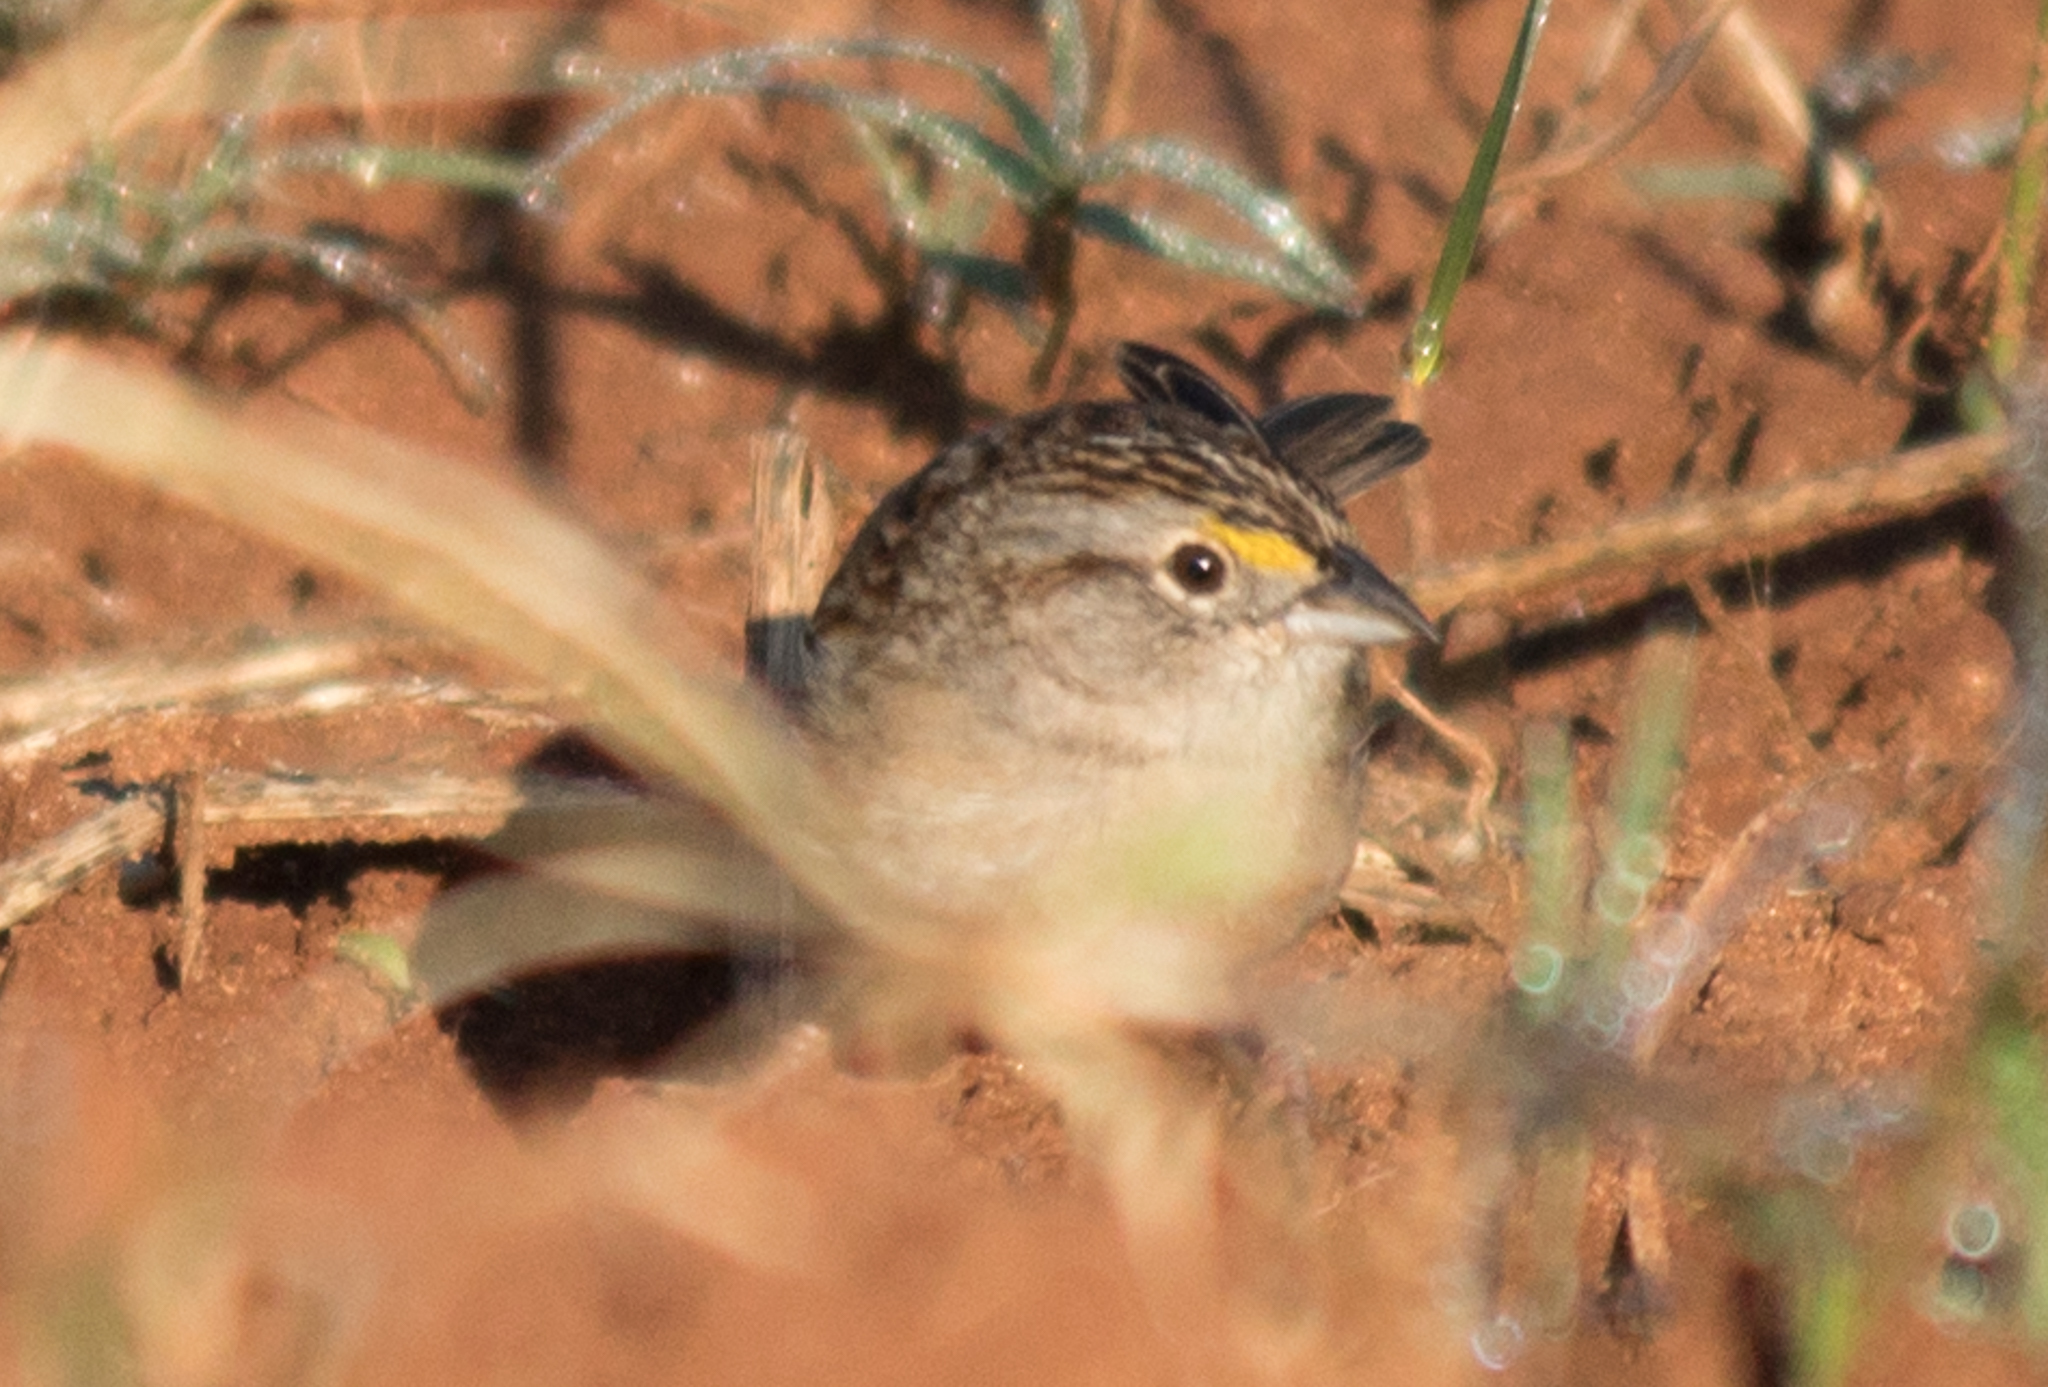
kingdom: Animalia
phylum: Chordata
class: Aves
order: Passeriformes
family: Passerellidae
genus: Ammodramus
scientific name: Ammodramus humeralis
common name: Grassland sparrow
